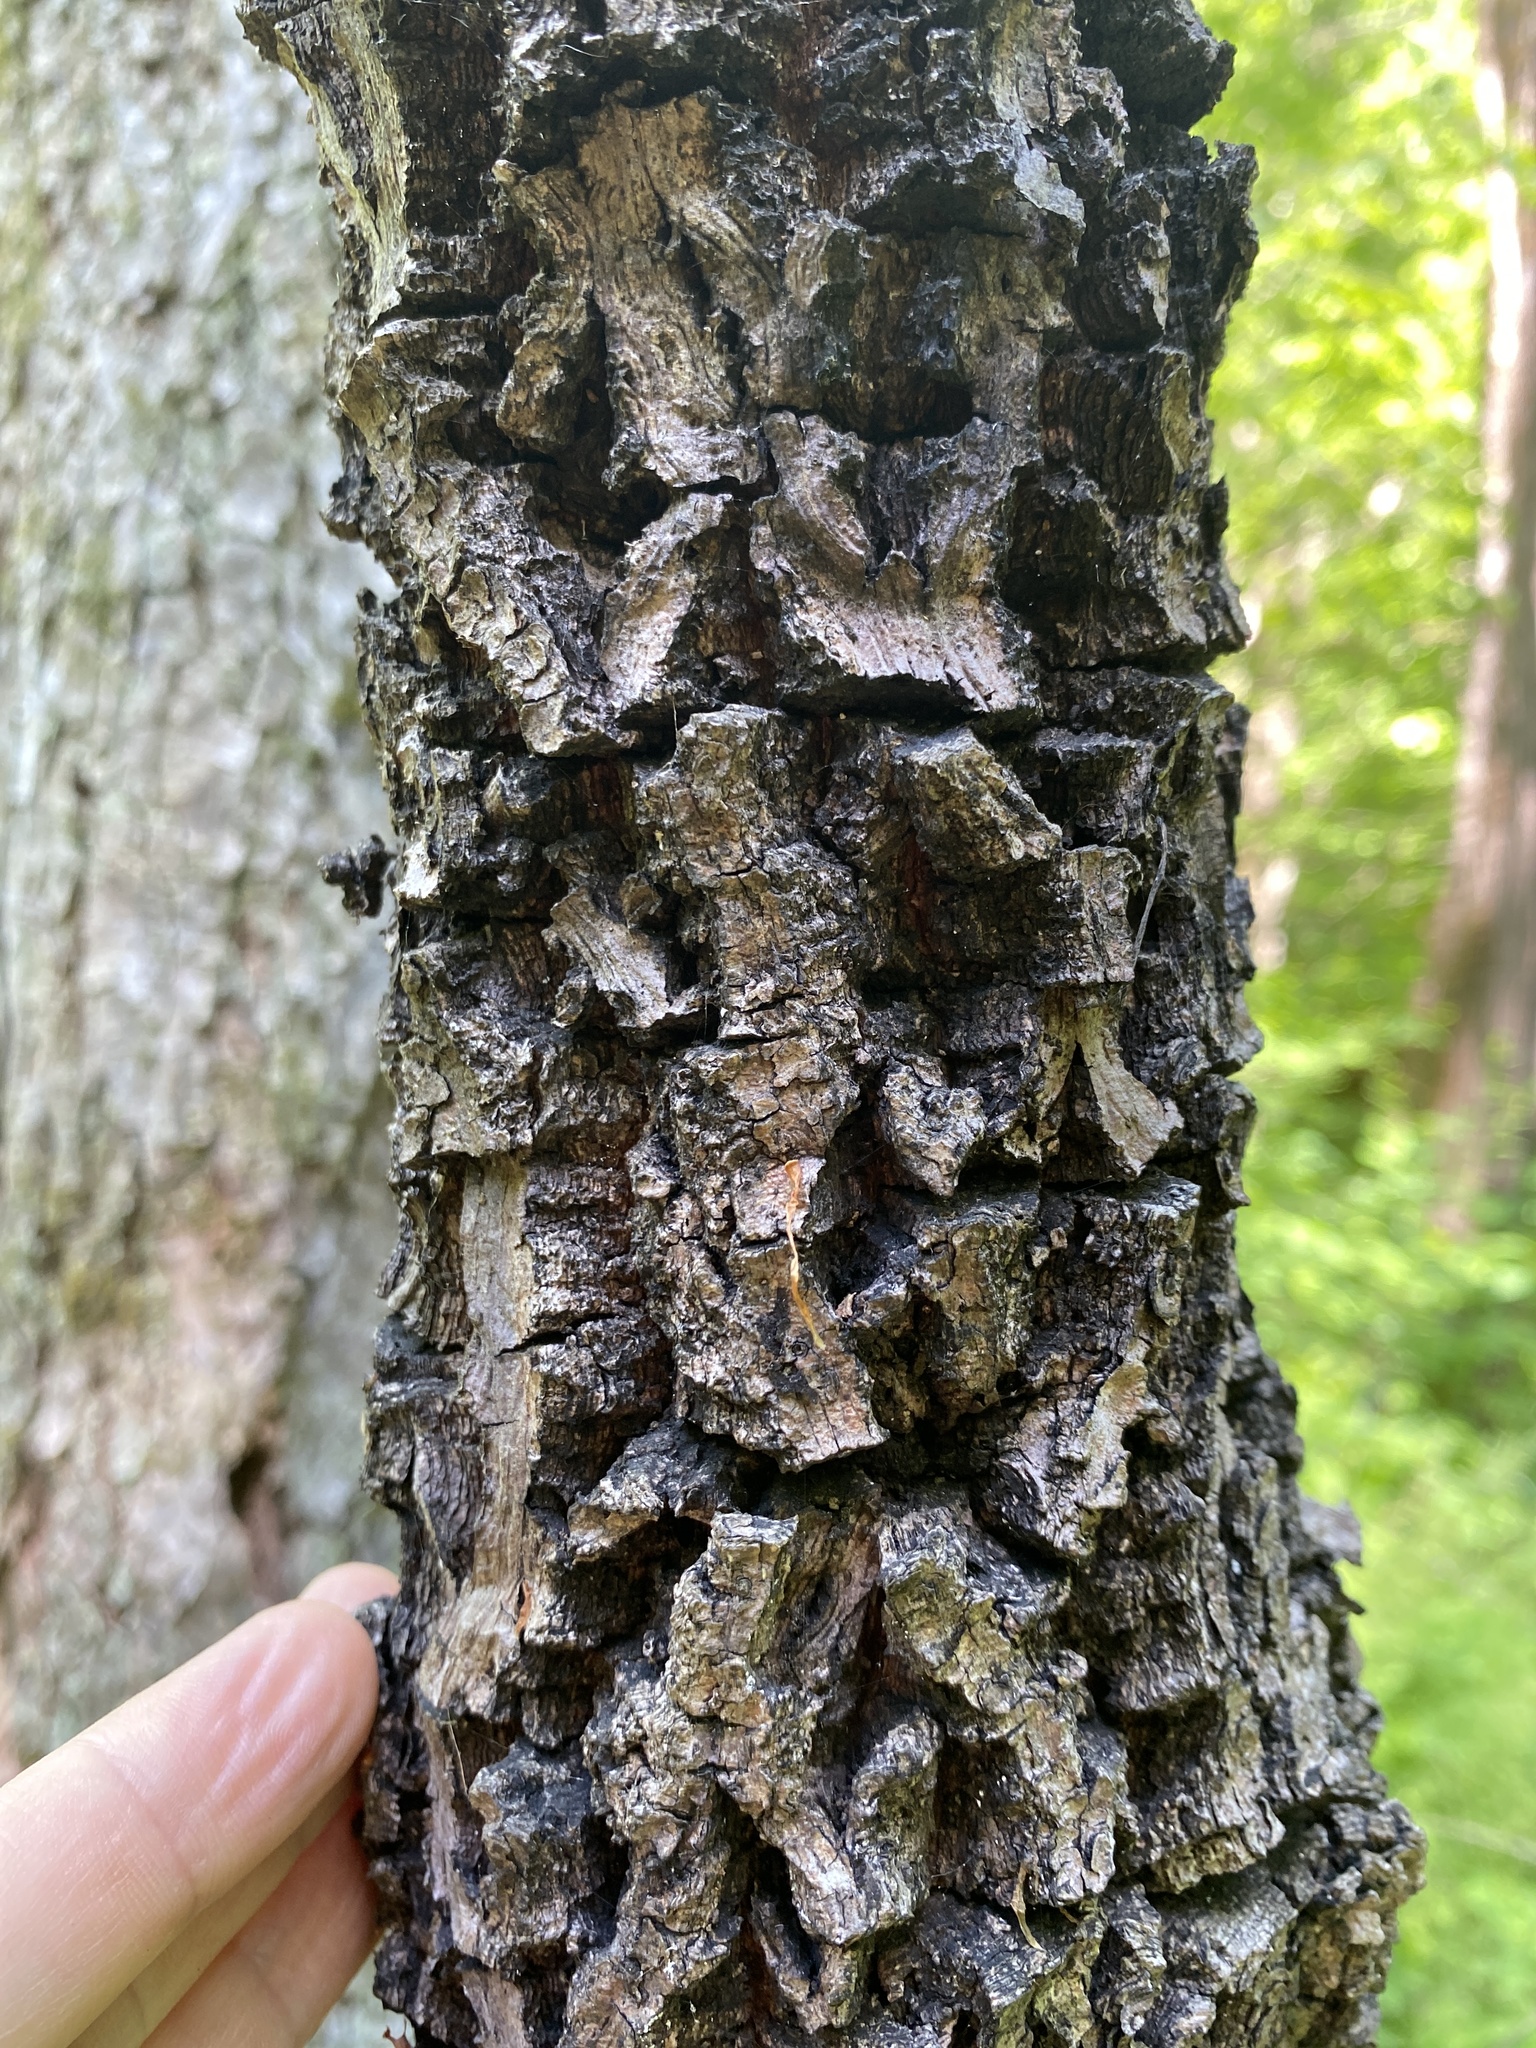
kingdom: Plantae
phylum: Tracheophyta
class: Magnoliopsida
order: Vitales
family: Vitaceae
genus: Parthenocissus
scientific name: Parthenocissus quinquefolia
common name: Virginia-creeper
